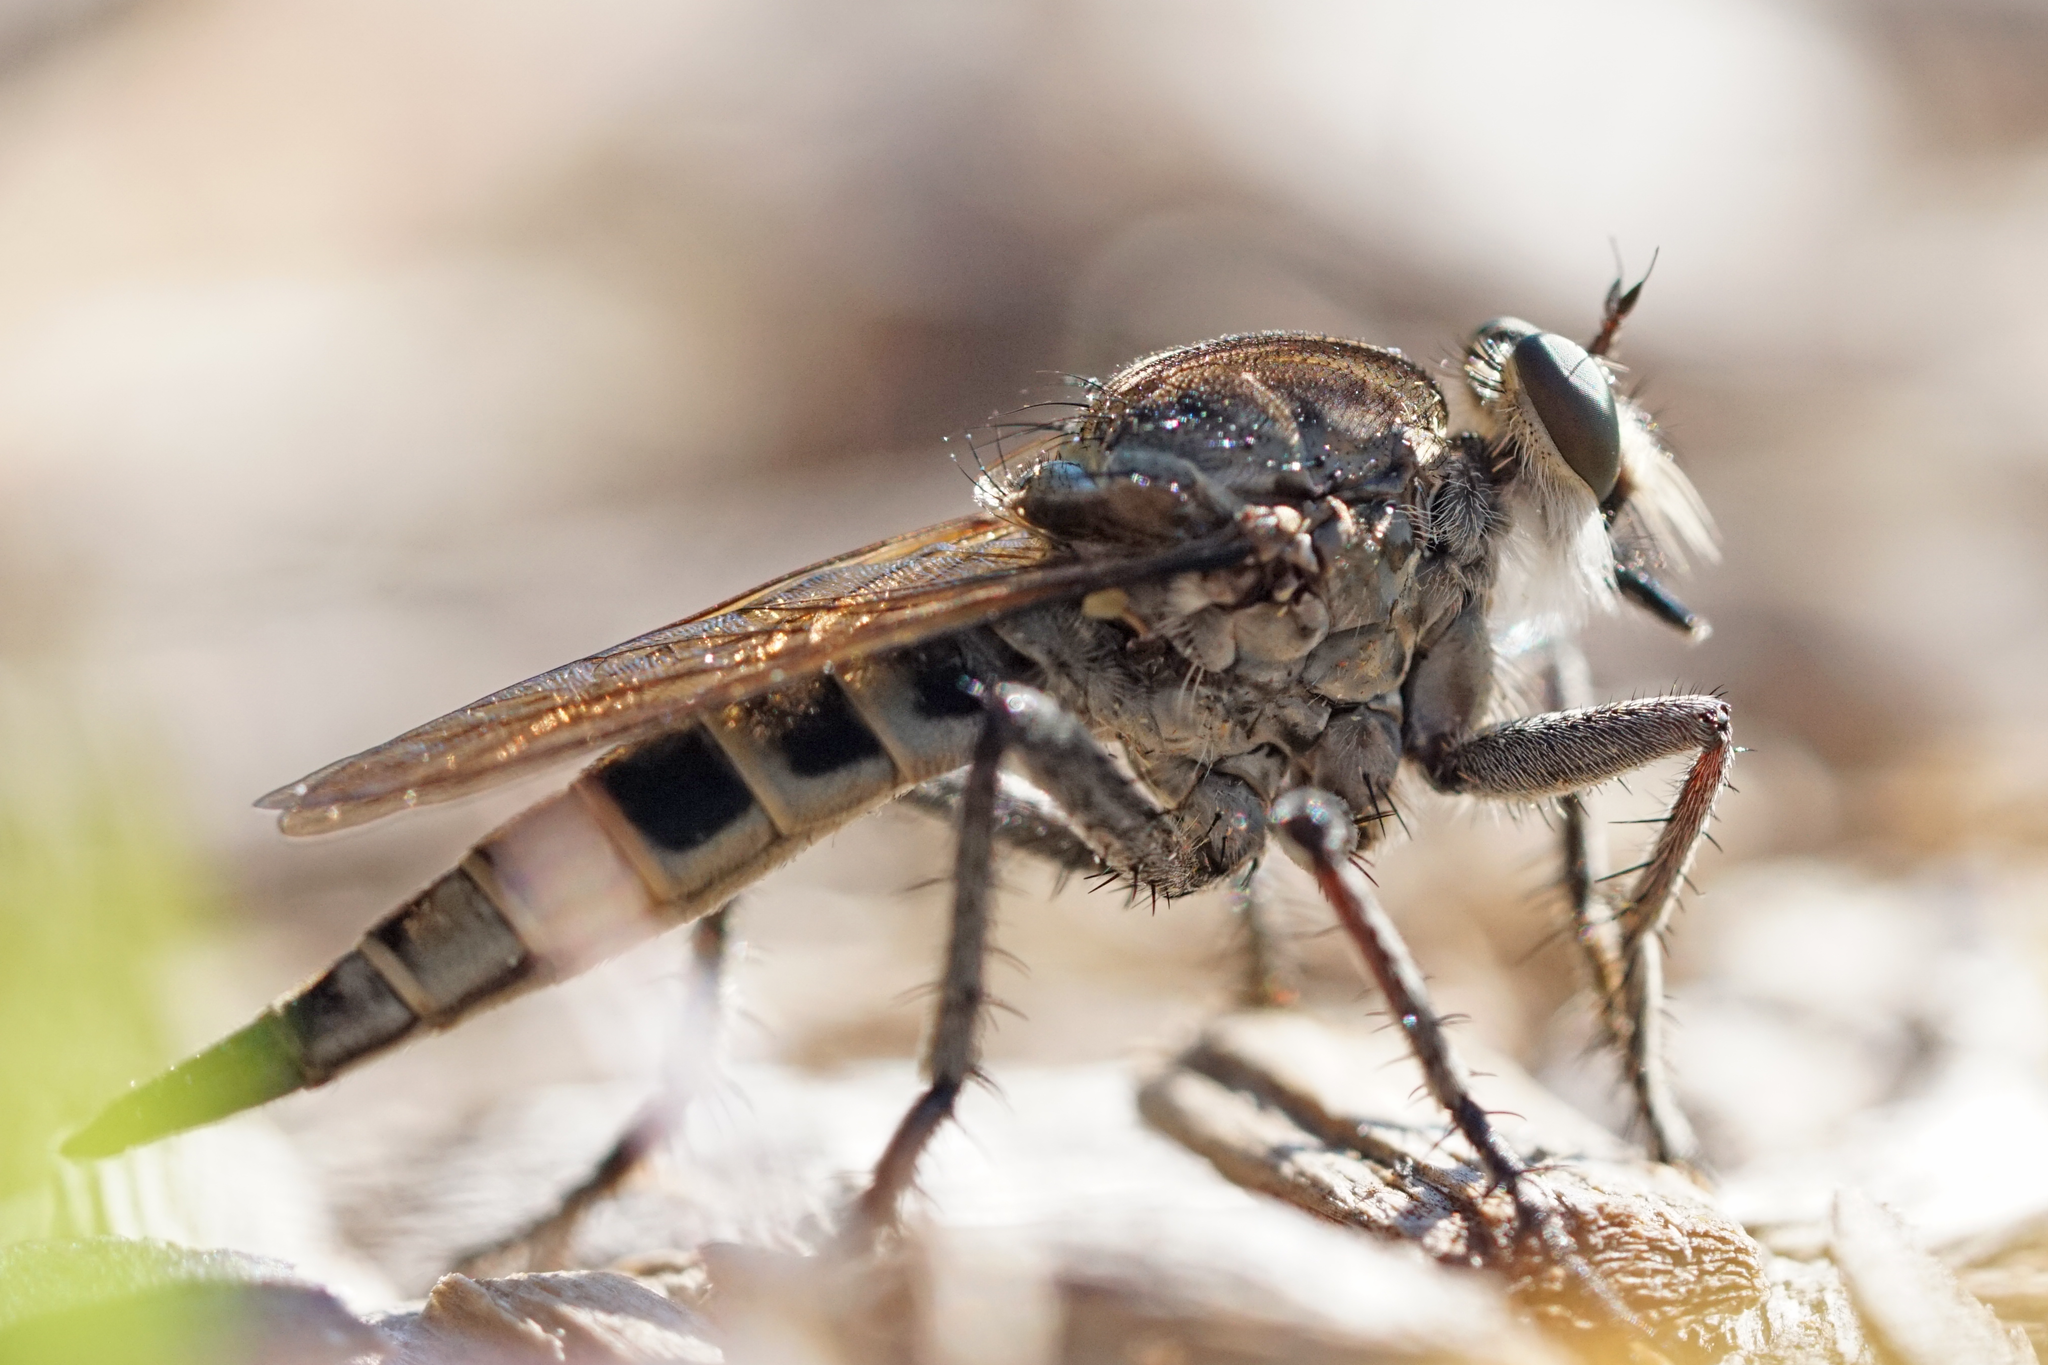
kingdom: Animalia
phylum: Arthropoda
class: Insecta
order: Diptera
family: Asilidae
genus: Triorla
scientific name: Triorla interrupta
